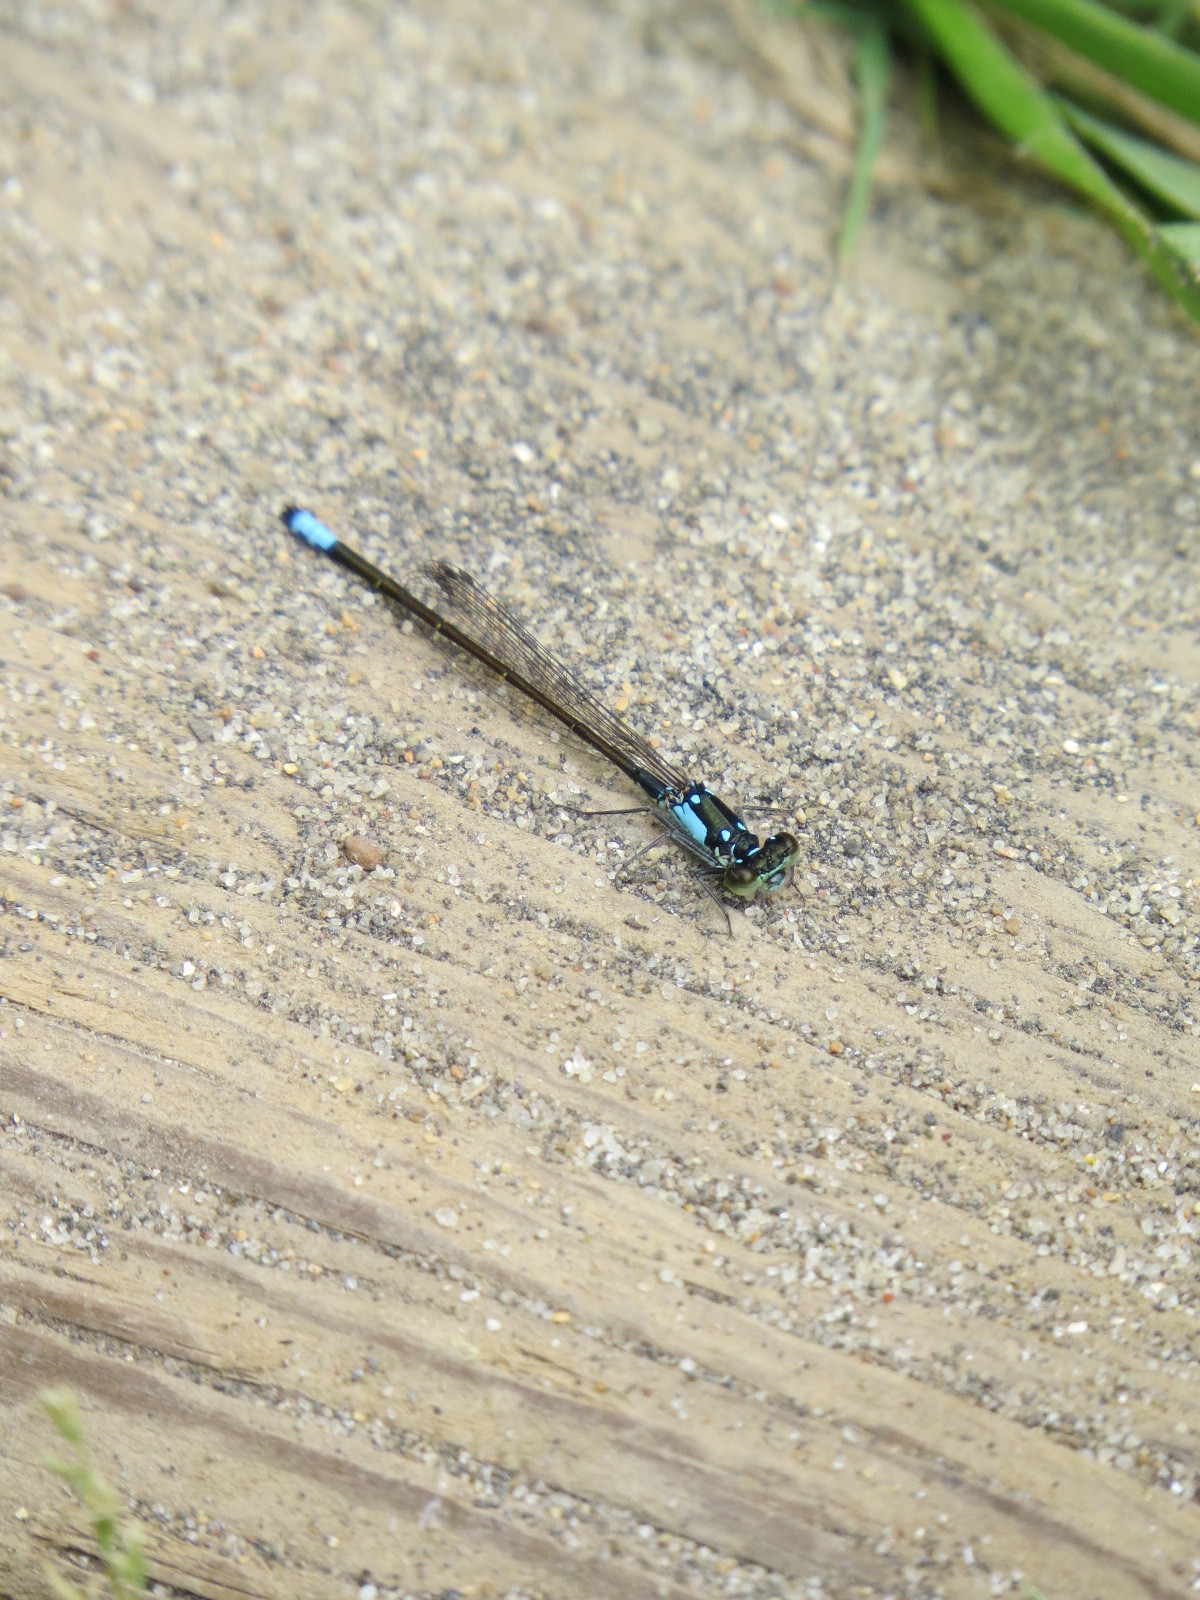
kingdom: Animalia
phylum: Arthropoda
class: Insecta
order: Odonata
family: Coenagrionidae
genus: Ischnura
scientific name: Ischnura cervula
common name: Pacific forktail
